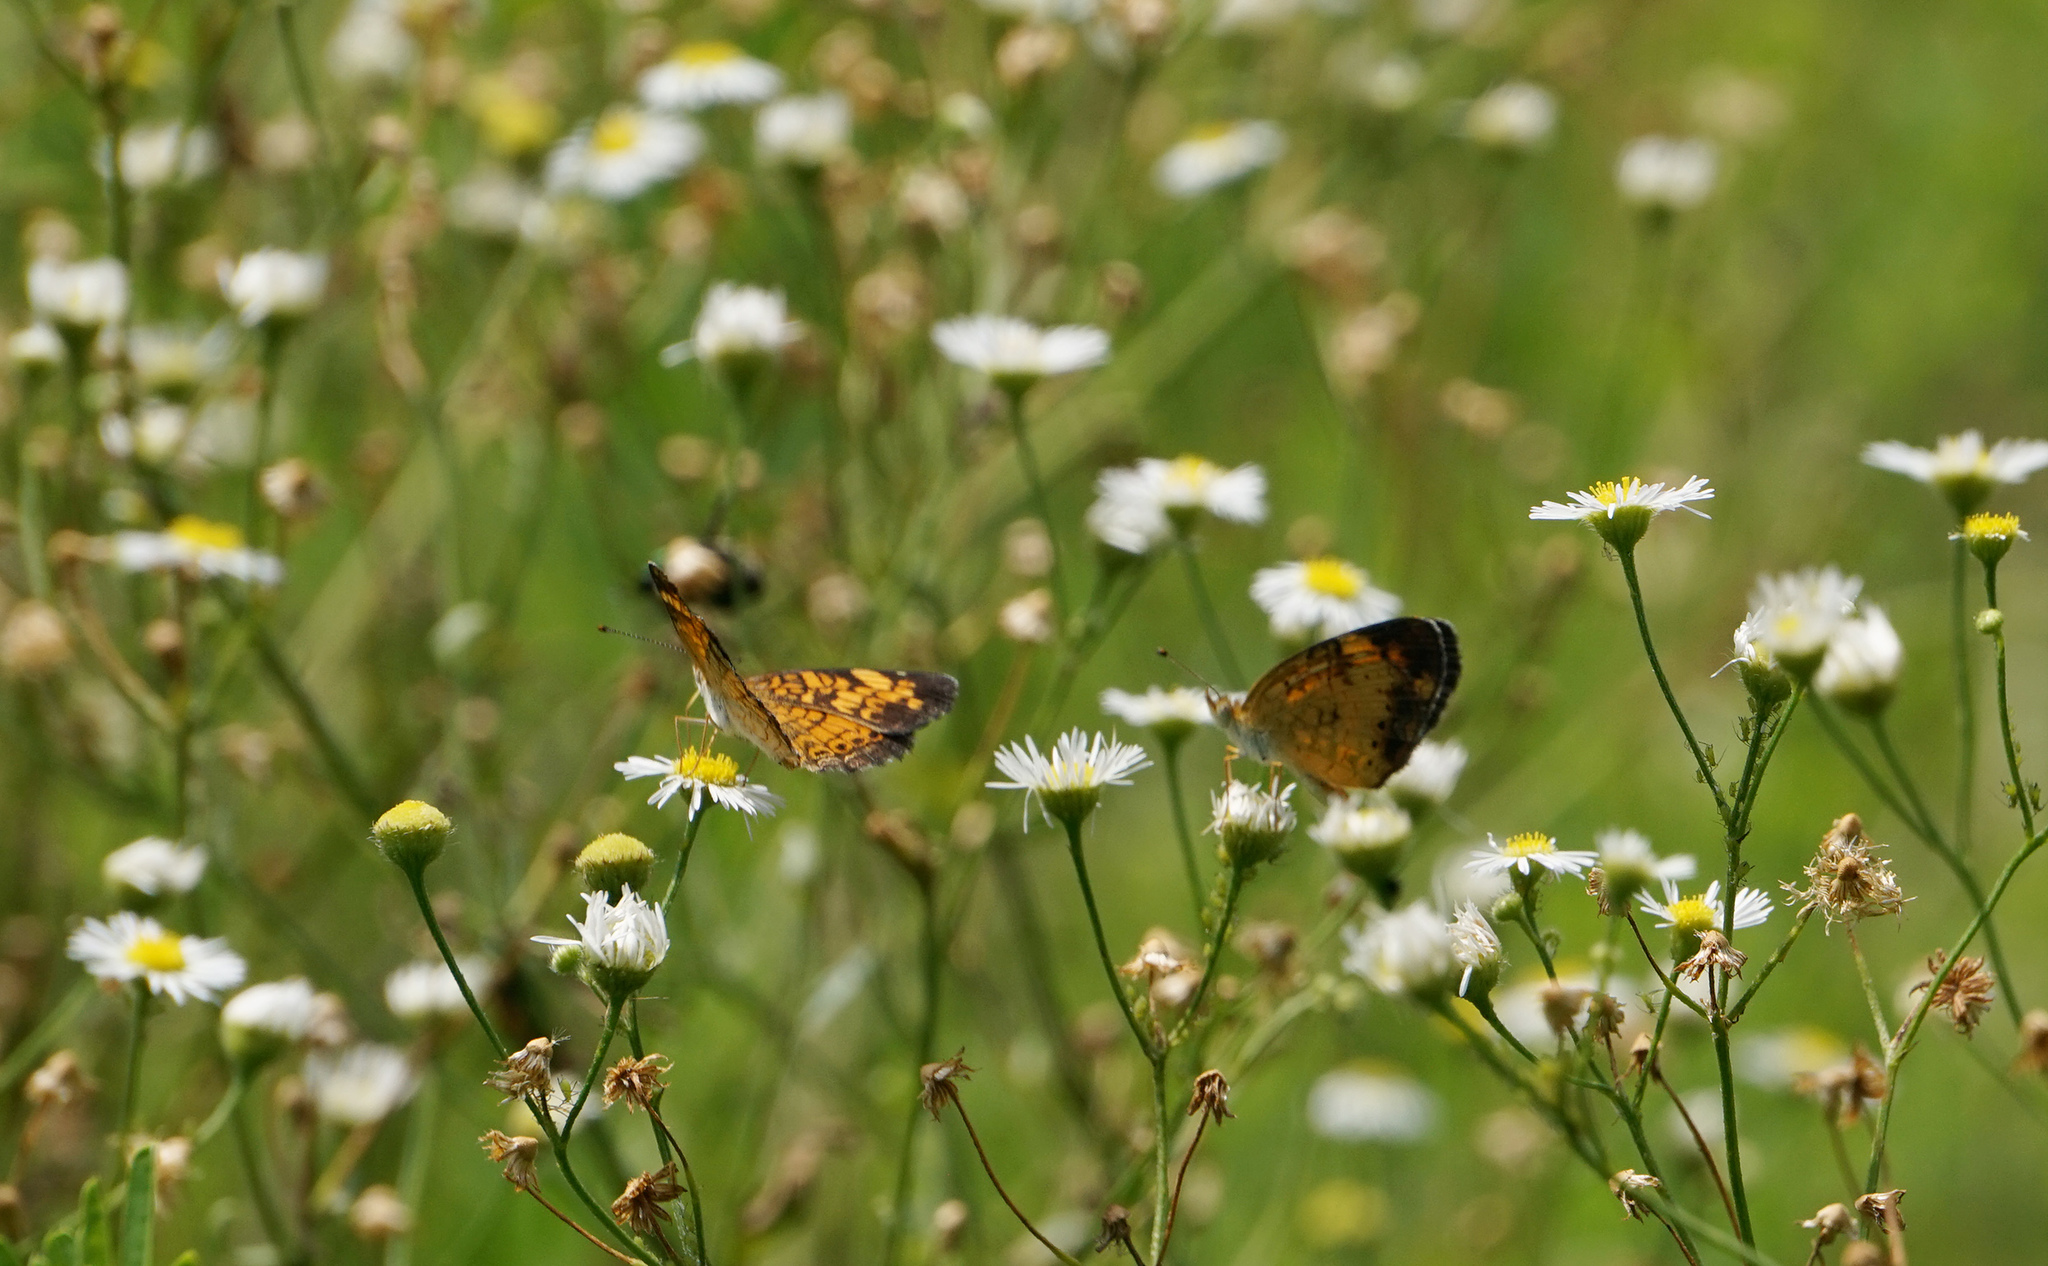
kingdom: Animalia
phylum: Arthropoda
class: Insecta
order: Lepidoptera
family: Nymphalidae
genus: Phyciodes
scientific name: Phyciodes tharos
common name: Pearl crescent
